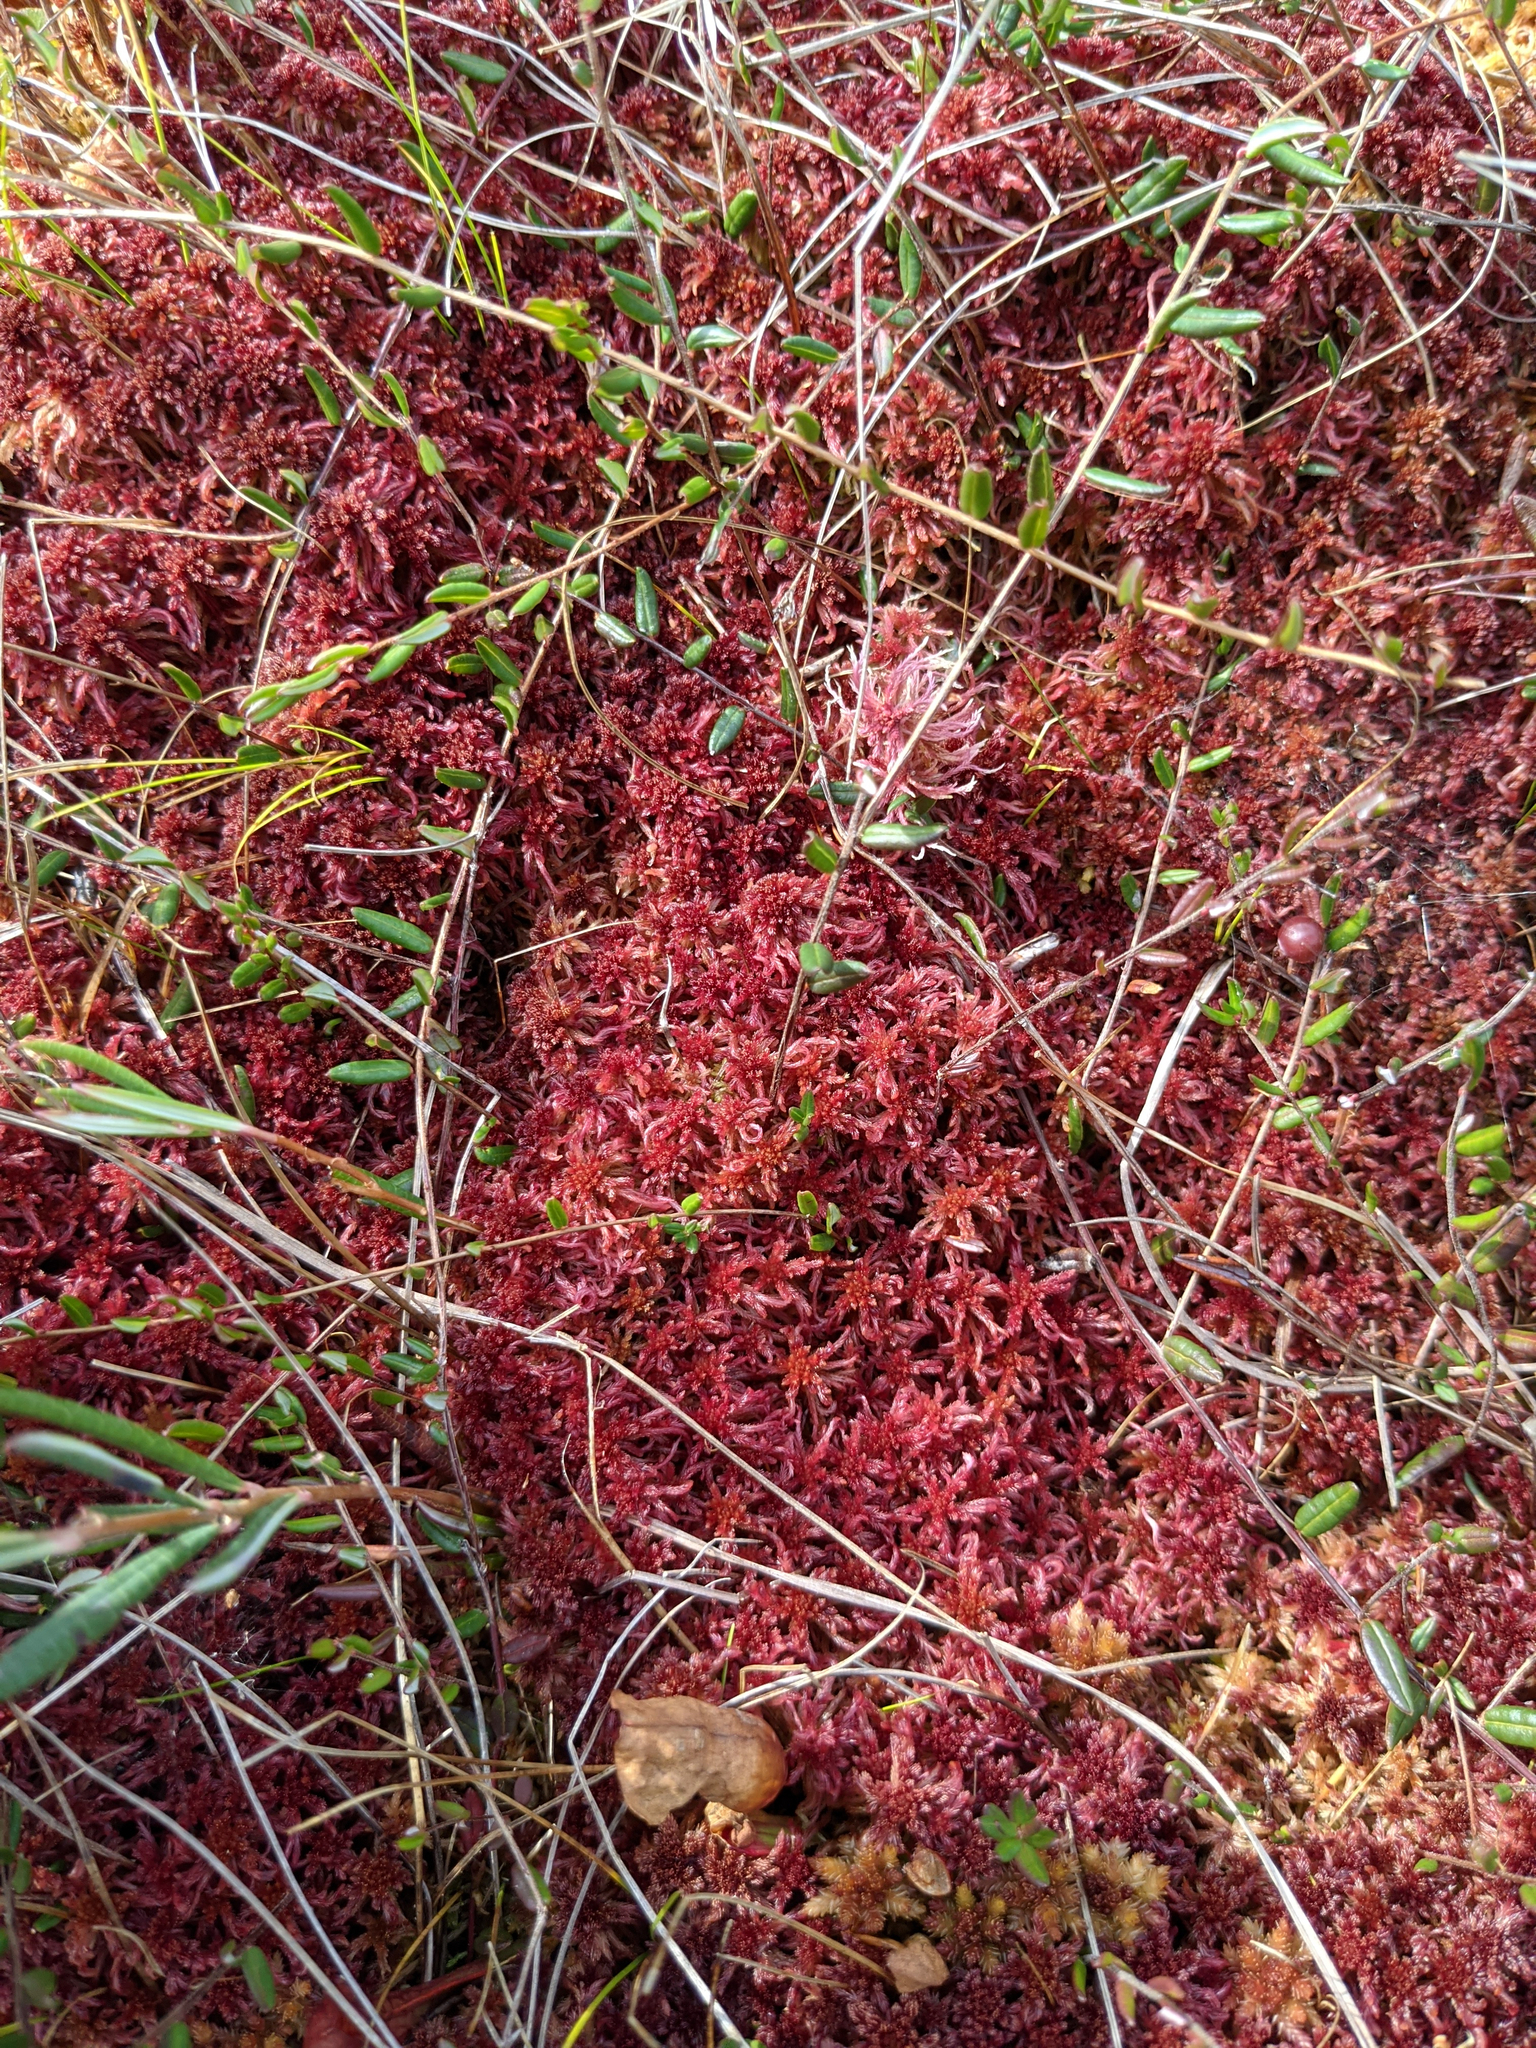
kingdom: Plantae
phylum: Tracheophyta
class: Magnoliopsida
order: Ericales
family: Ericaceae
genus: Vaccinium
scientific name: Vaccinium oxycoccos
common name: Cranberry
